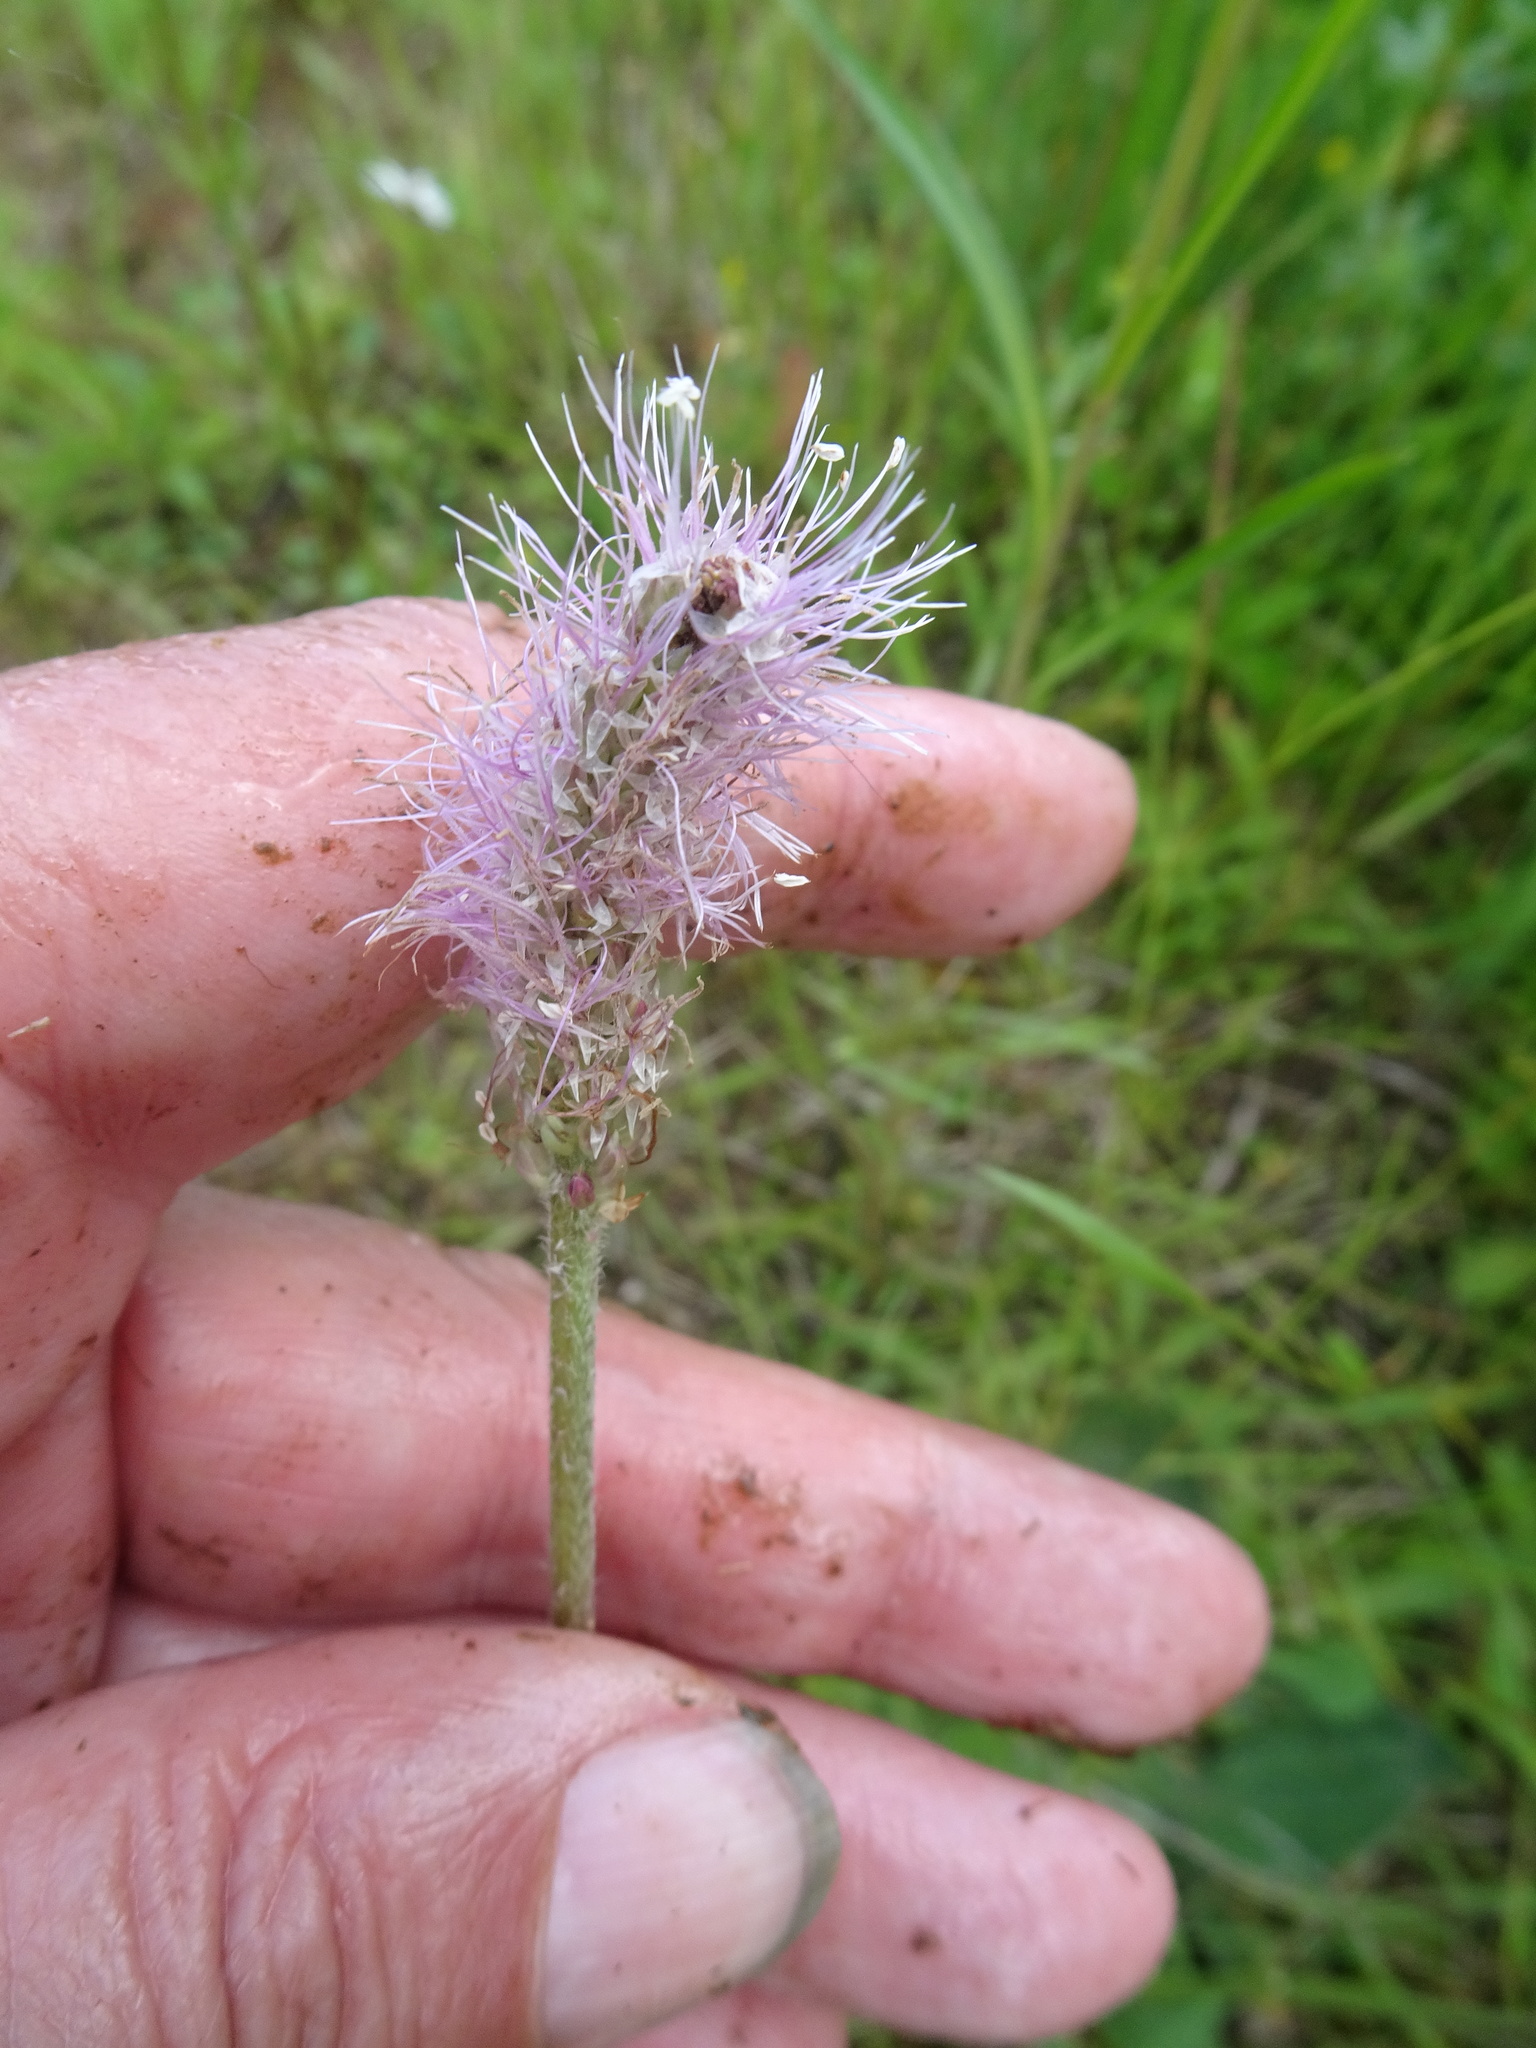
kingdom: Plantae
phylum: Tracheophyta
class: Magnoliopsida
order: Lamiales
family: Plantaginaceae
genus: Plantago
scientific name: Plantago media
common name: Hoary plantain
